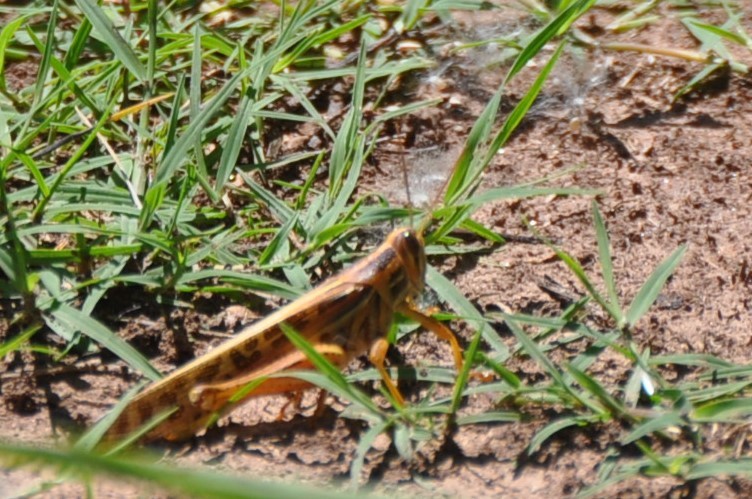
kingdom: Animalia
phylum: Arthropoda
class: Insecta
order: Orthoptera
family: Acrididae
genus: Schistocerca
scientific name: Schistocerca americana
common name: American bird locust
